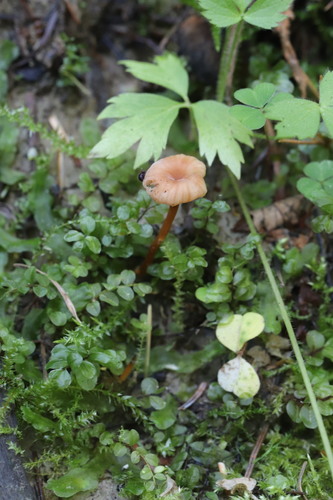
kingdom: Fungi
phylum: Basidiomycota
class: Agaricomycetes
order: Agaricales
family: Hydnangiaceae
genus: Laccaria
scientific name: Laccaria laccata
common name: Deceiver
